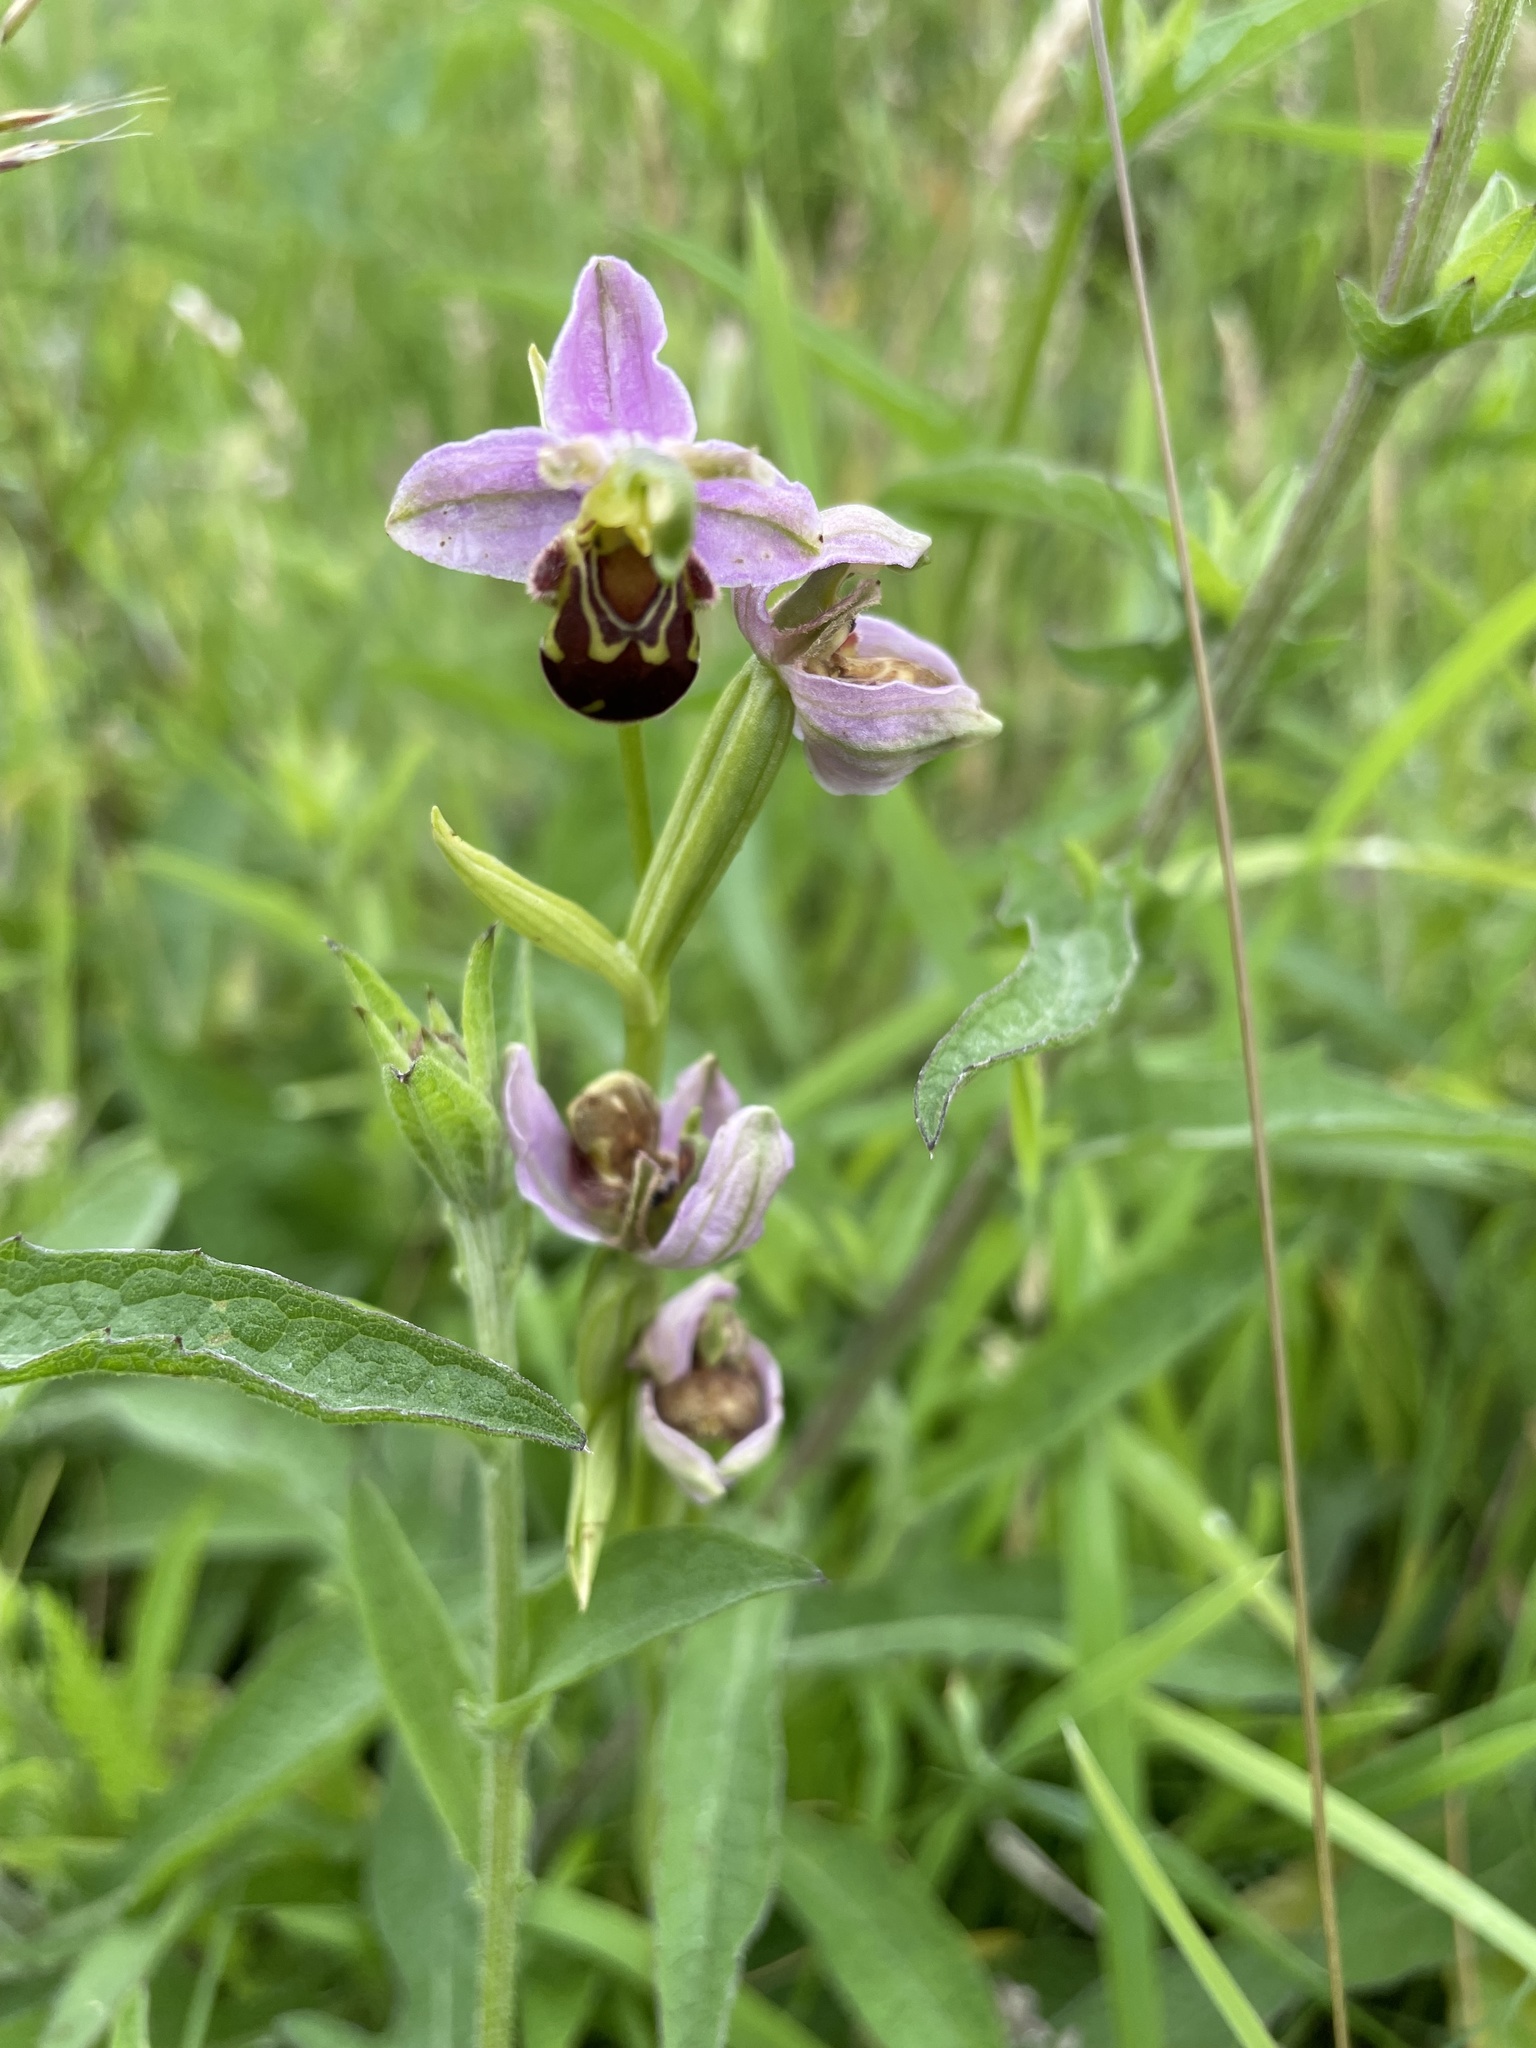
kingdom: Plantae
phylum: Tracheophyta
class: Liliopsida
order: Asparagales
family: Orchidaceae
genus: Ophrys
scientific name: Ophrys apifera
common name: Bee orchid
